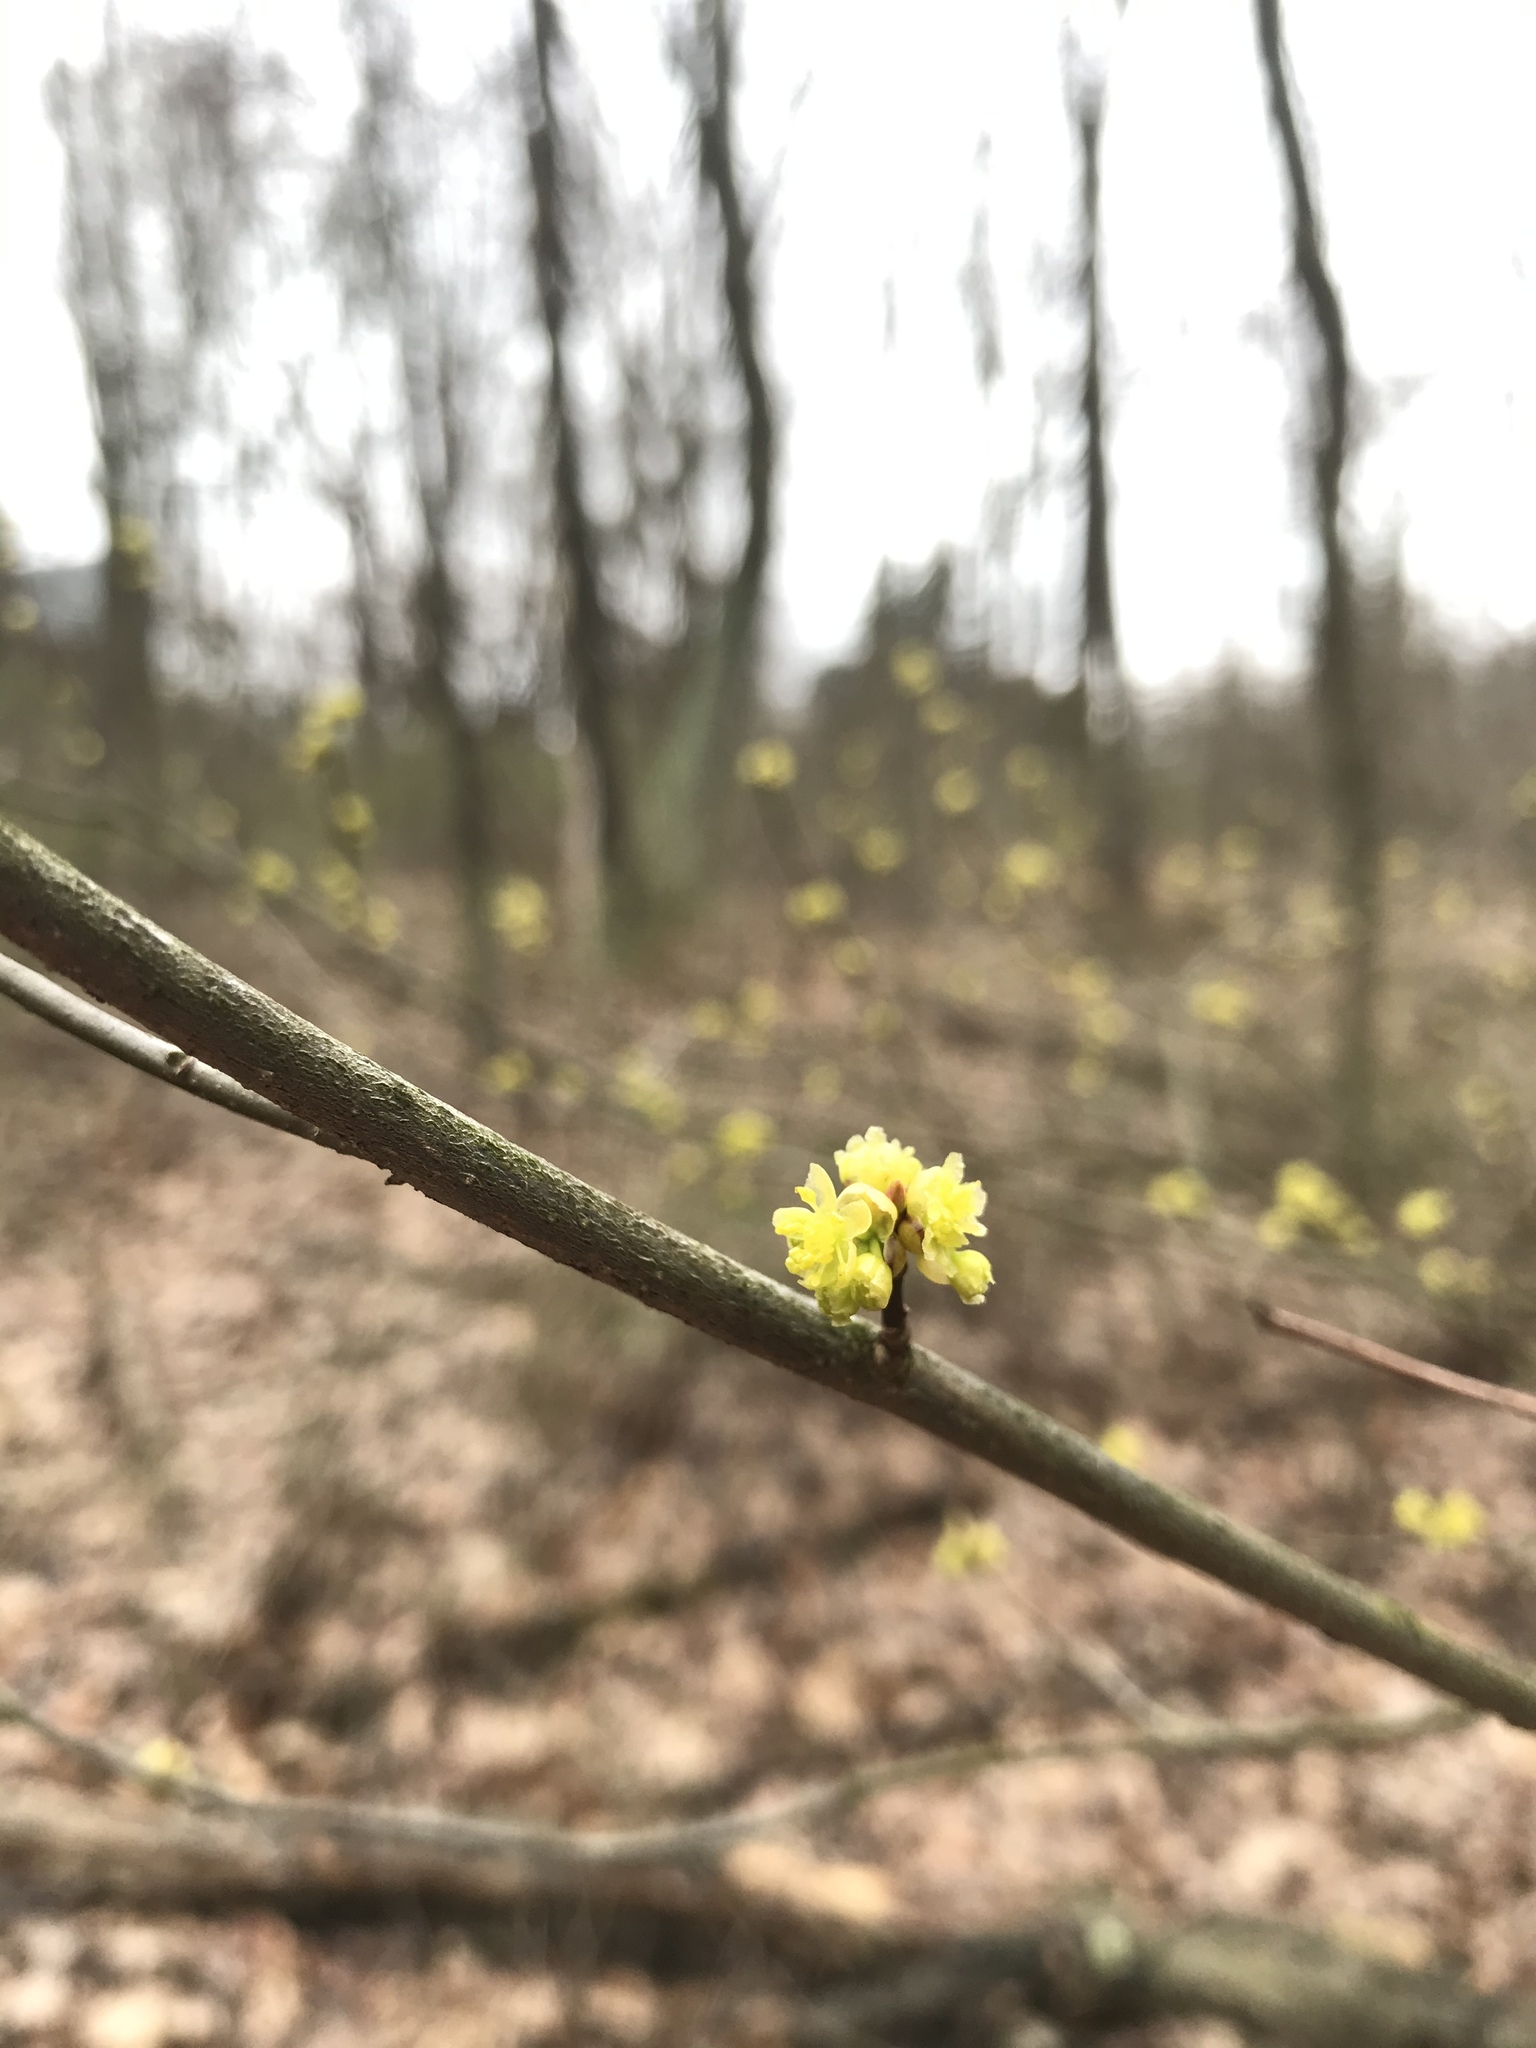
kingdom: Plantae
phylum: Tracheophyta
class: Magnoliopsida
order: Laurales
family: Lauraceae
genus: Lindera
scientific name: Lindera benzoin
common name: Spicebush
